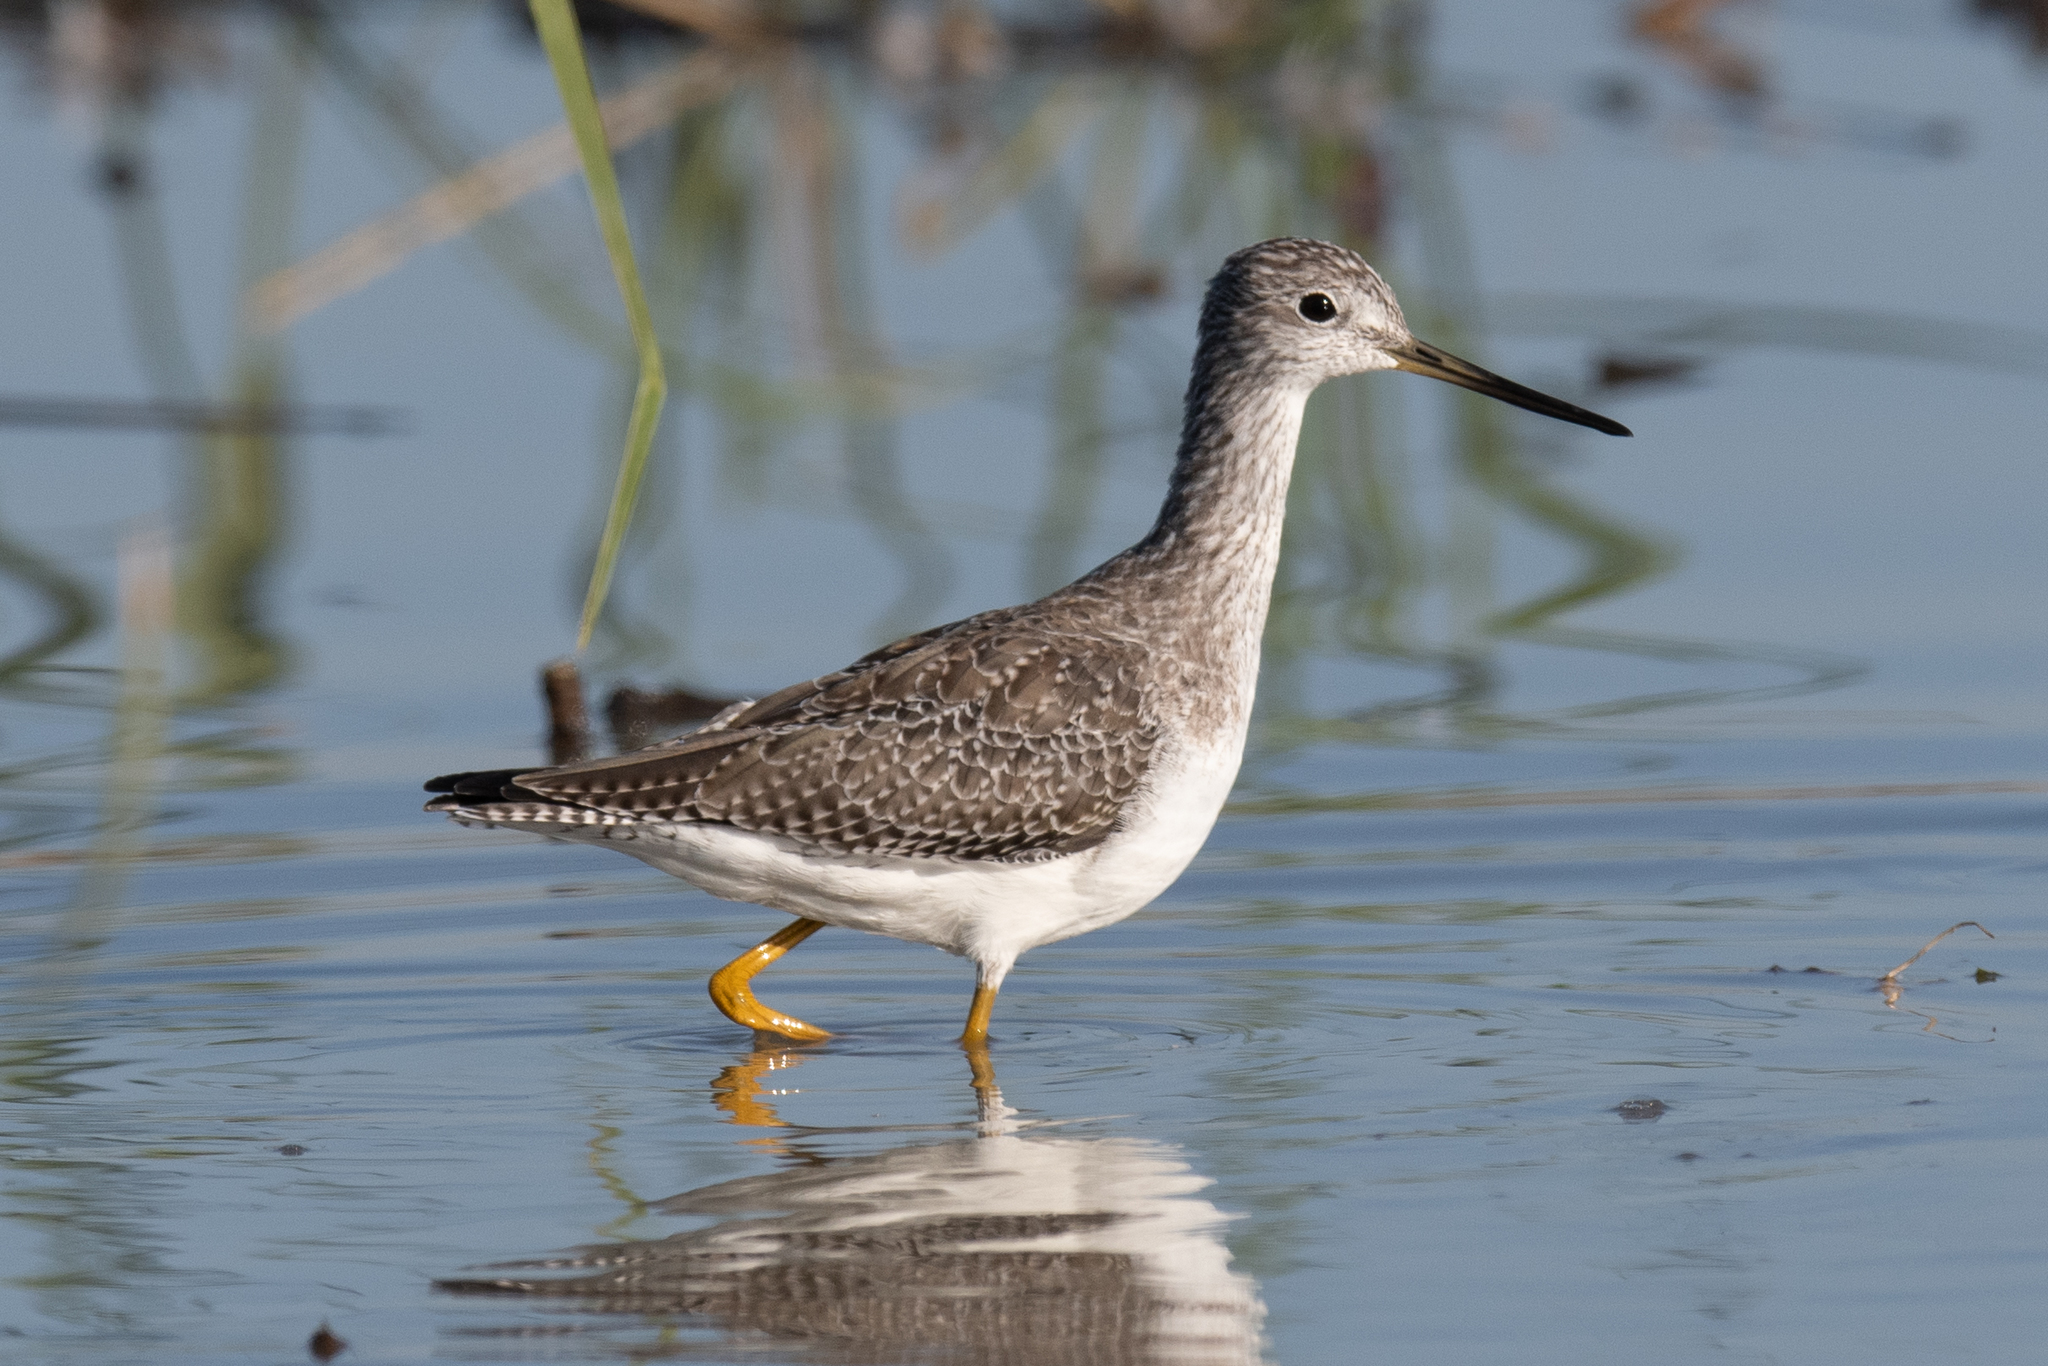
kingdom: Animalia
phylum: Chordata
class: Aves
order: Charadriiformes
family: Scolopacidae
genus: Tringa
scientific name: Tringa melanoleuca
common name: Greater yellowlegs
